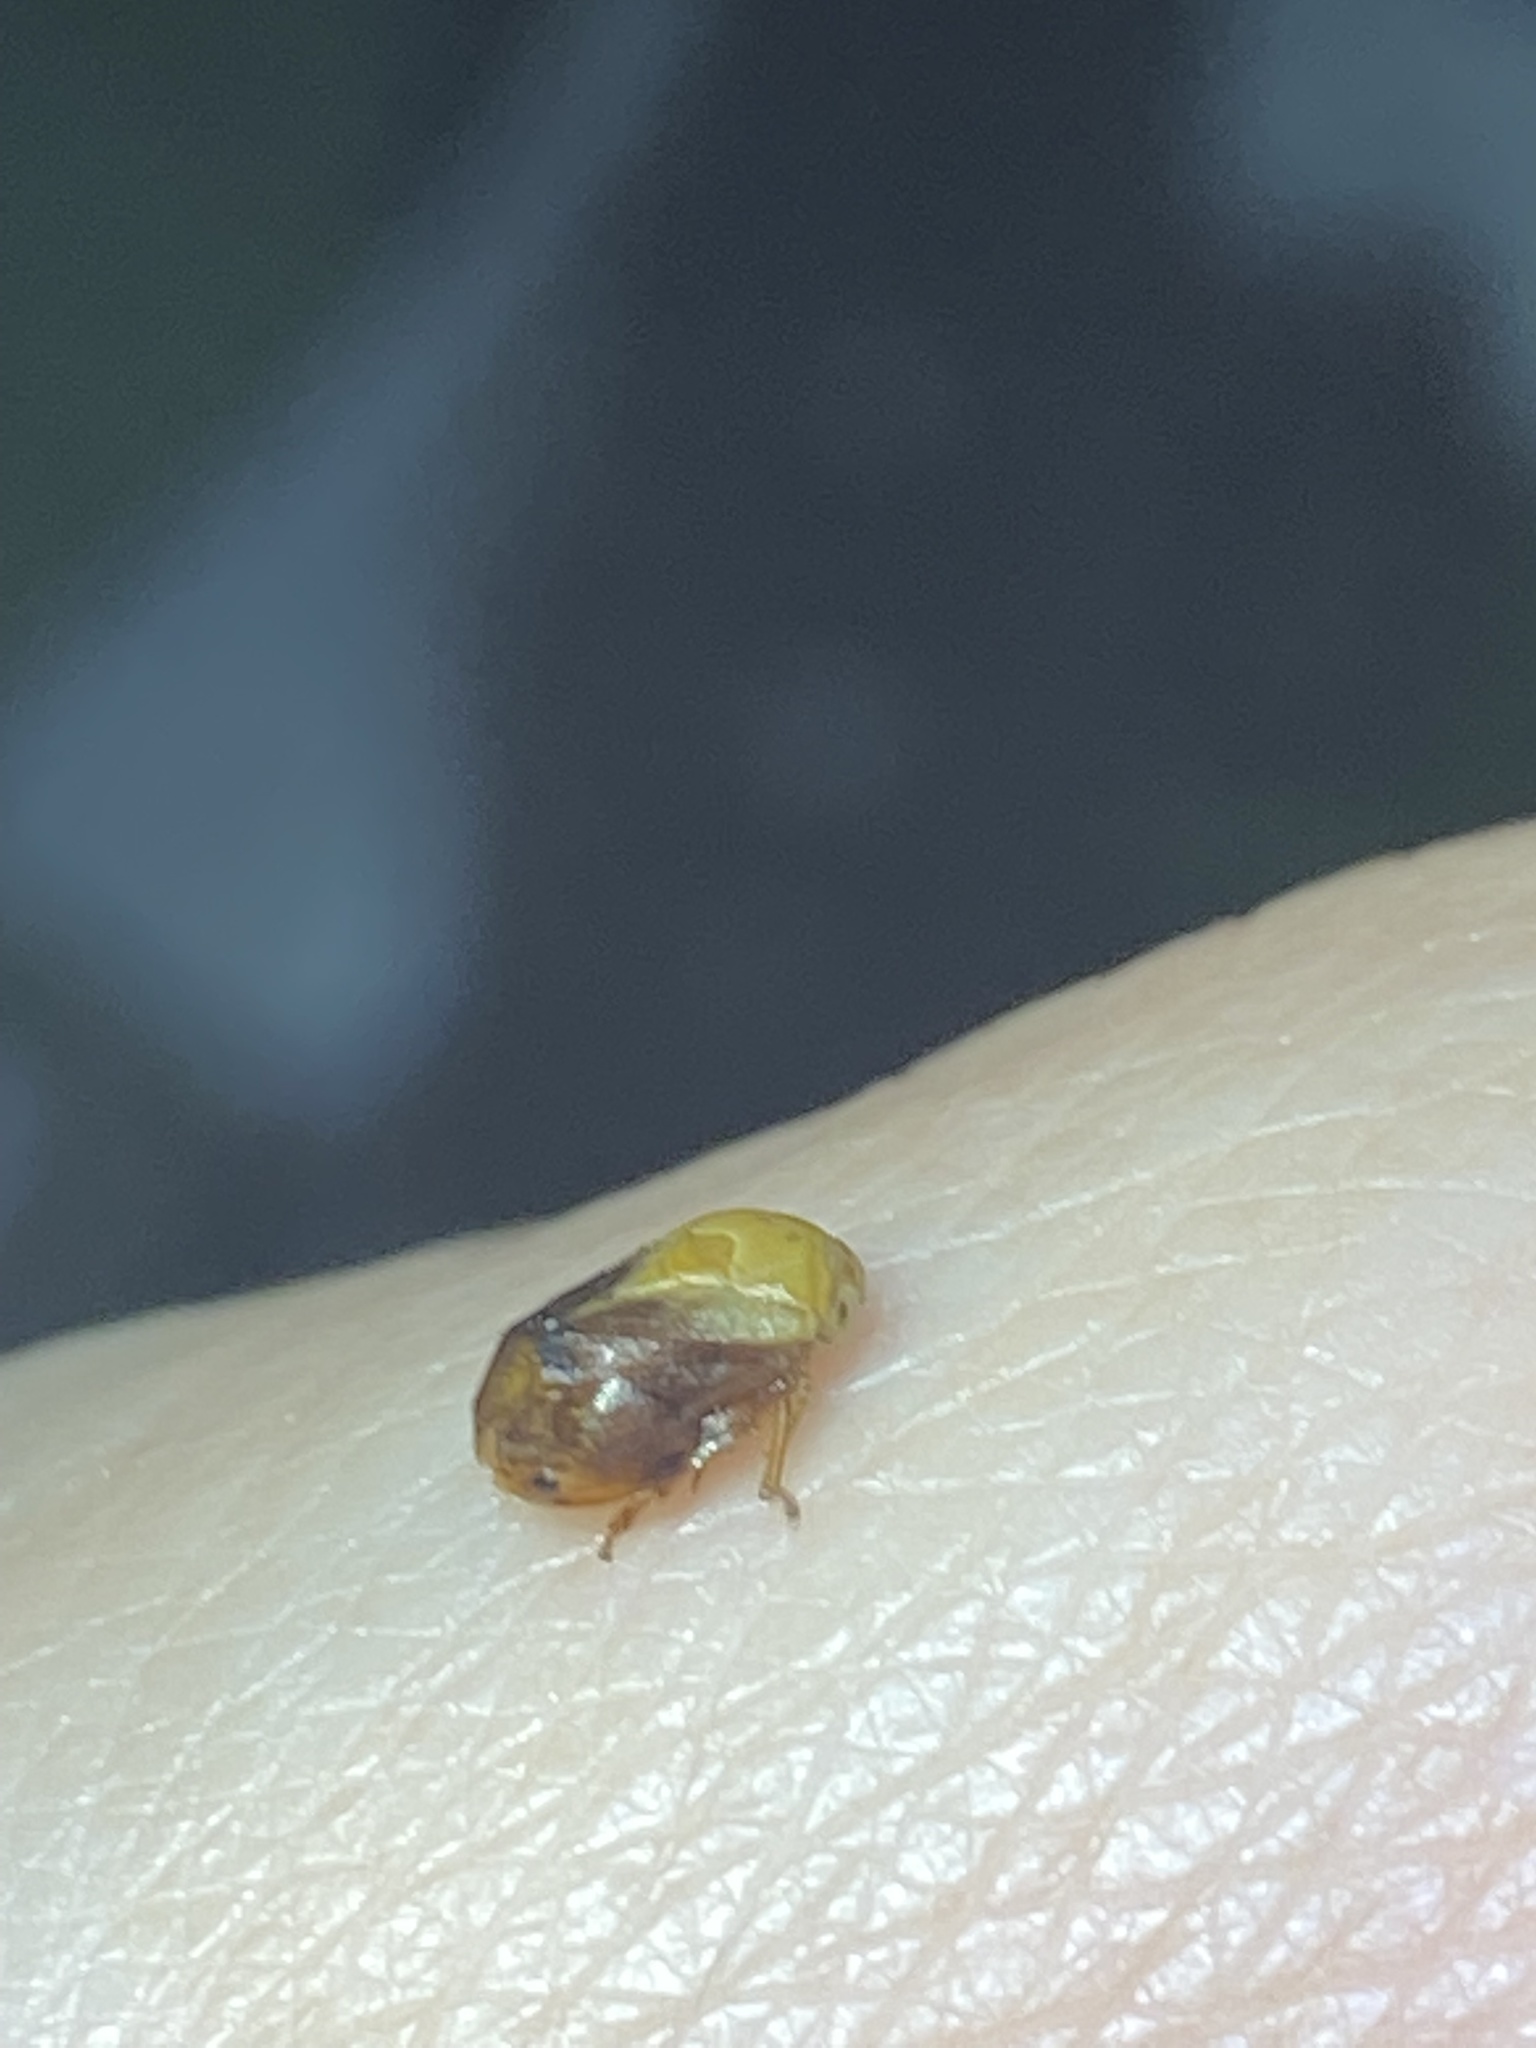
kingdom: Animalia
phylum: Arthropoda
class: Insecta
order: Hemiptera
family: Clastopteridae
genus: Clastoptera
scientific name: Clastoptera achatina
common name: Pecan spittlebug
